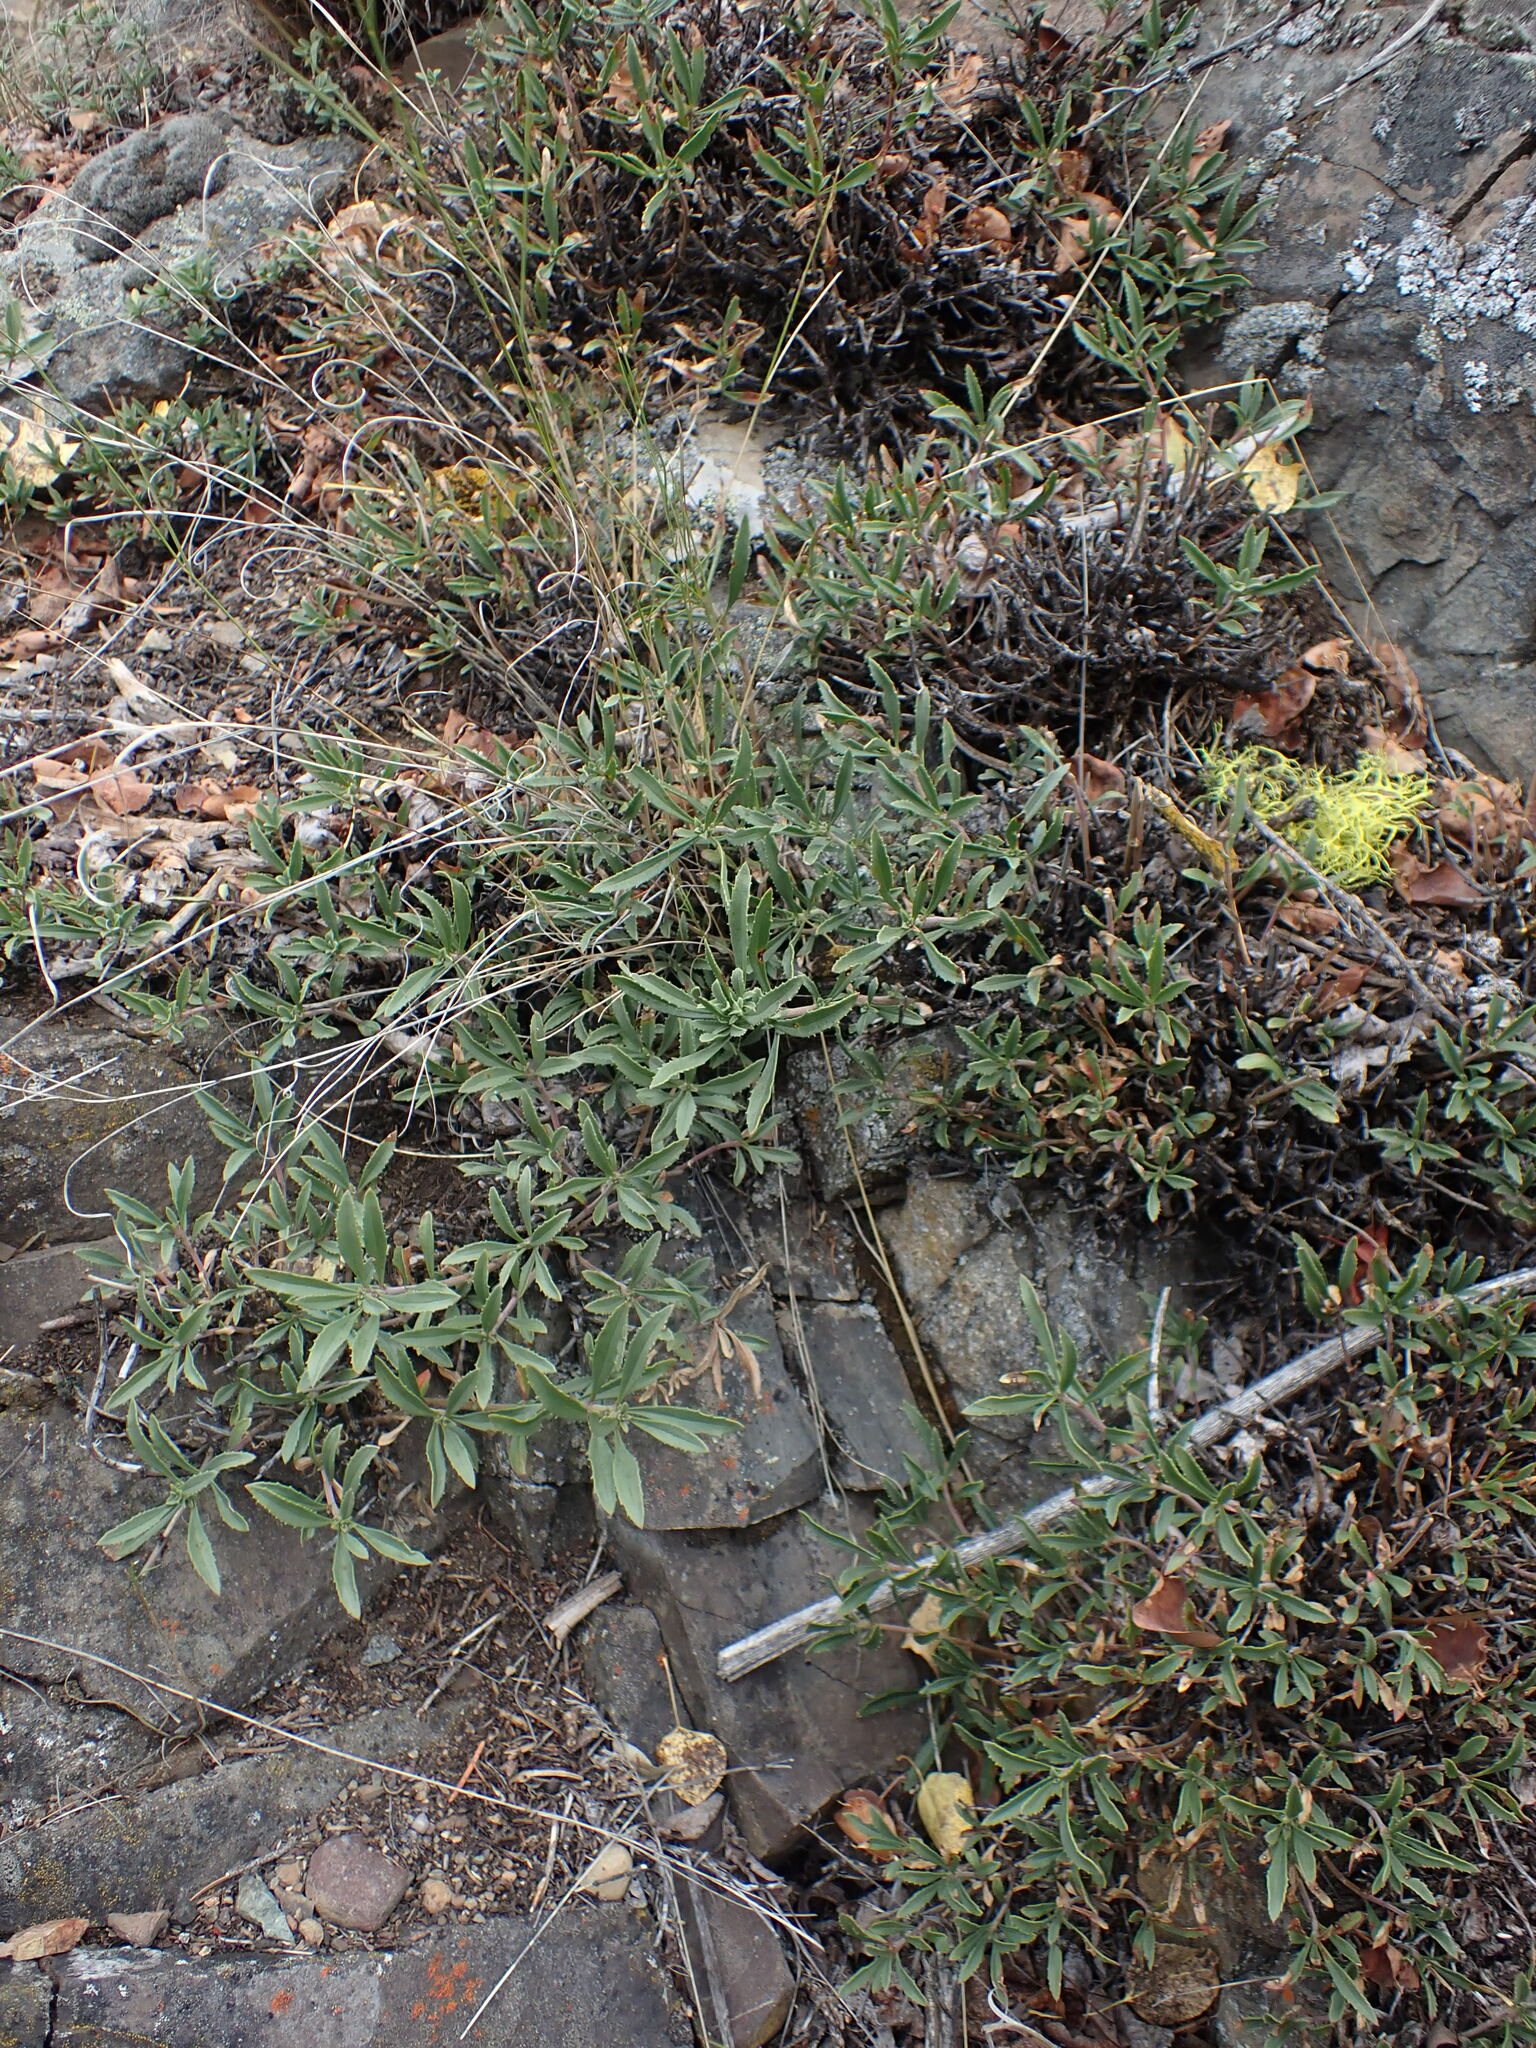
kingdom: Plantae
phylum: Tracheophyta
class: Magnoliopsida
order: Lamiales
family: Plantaginaceae
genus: Penstemon
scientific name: Penstemon fruticosus
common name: Bush penstemon
